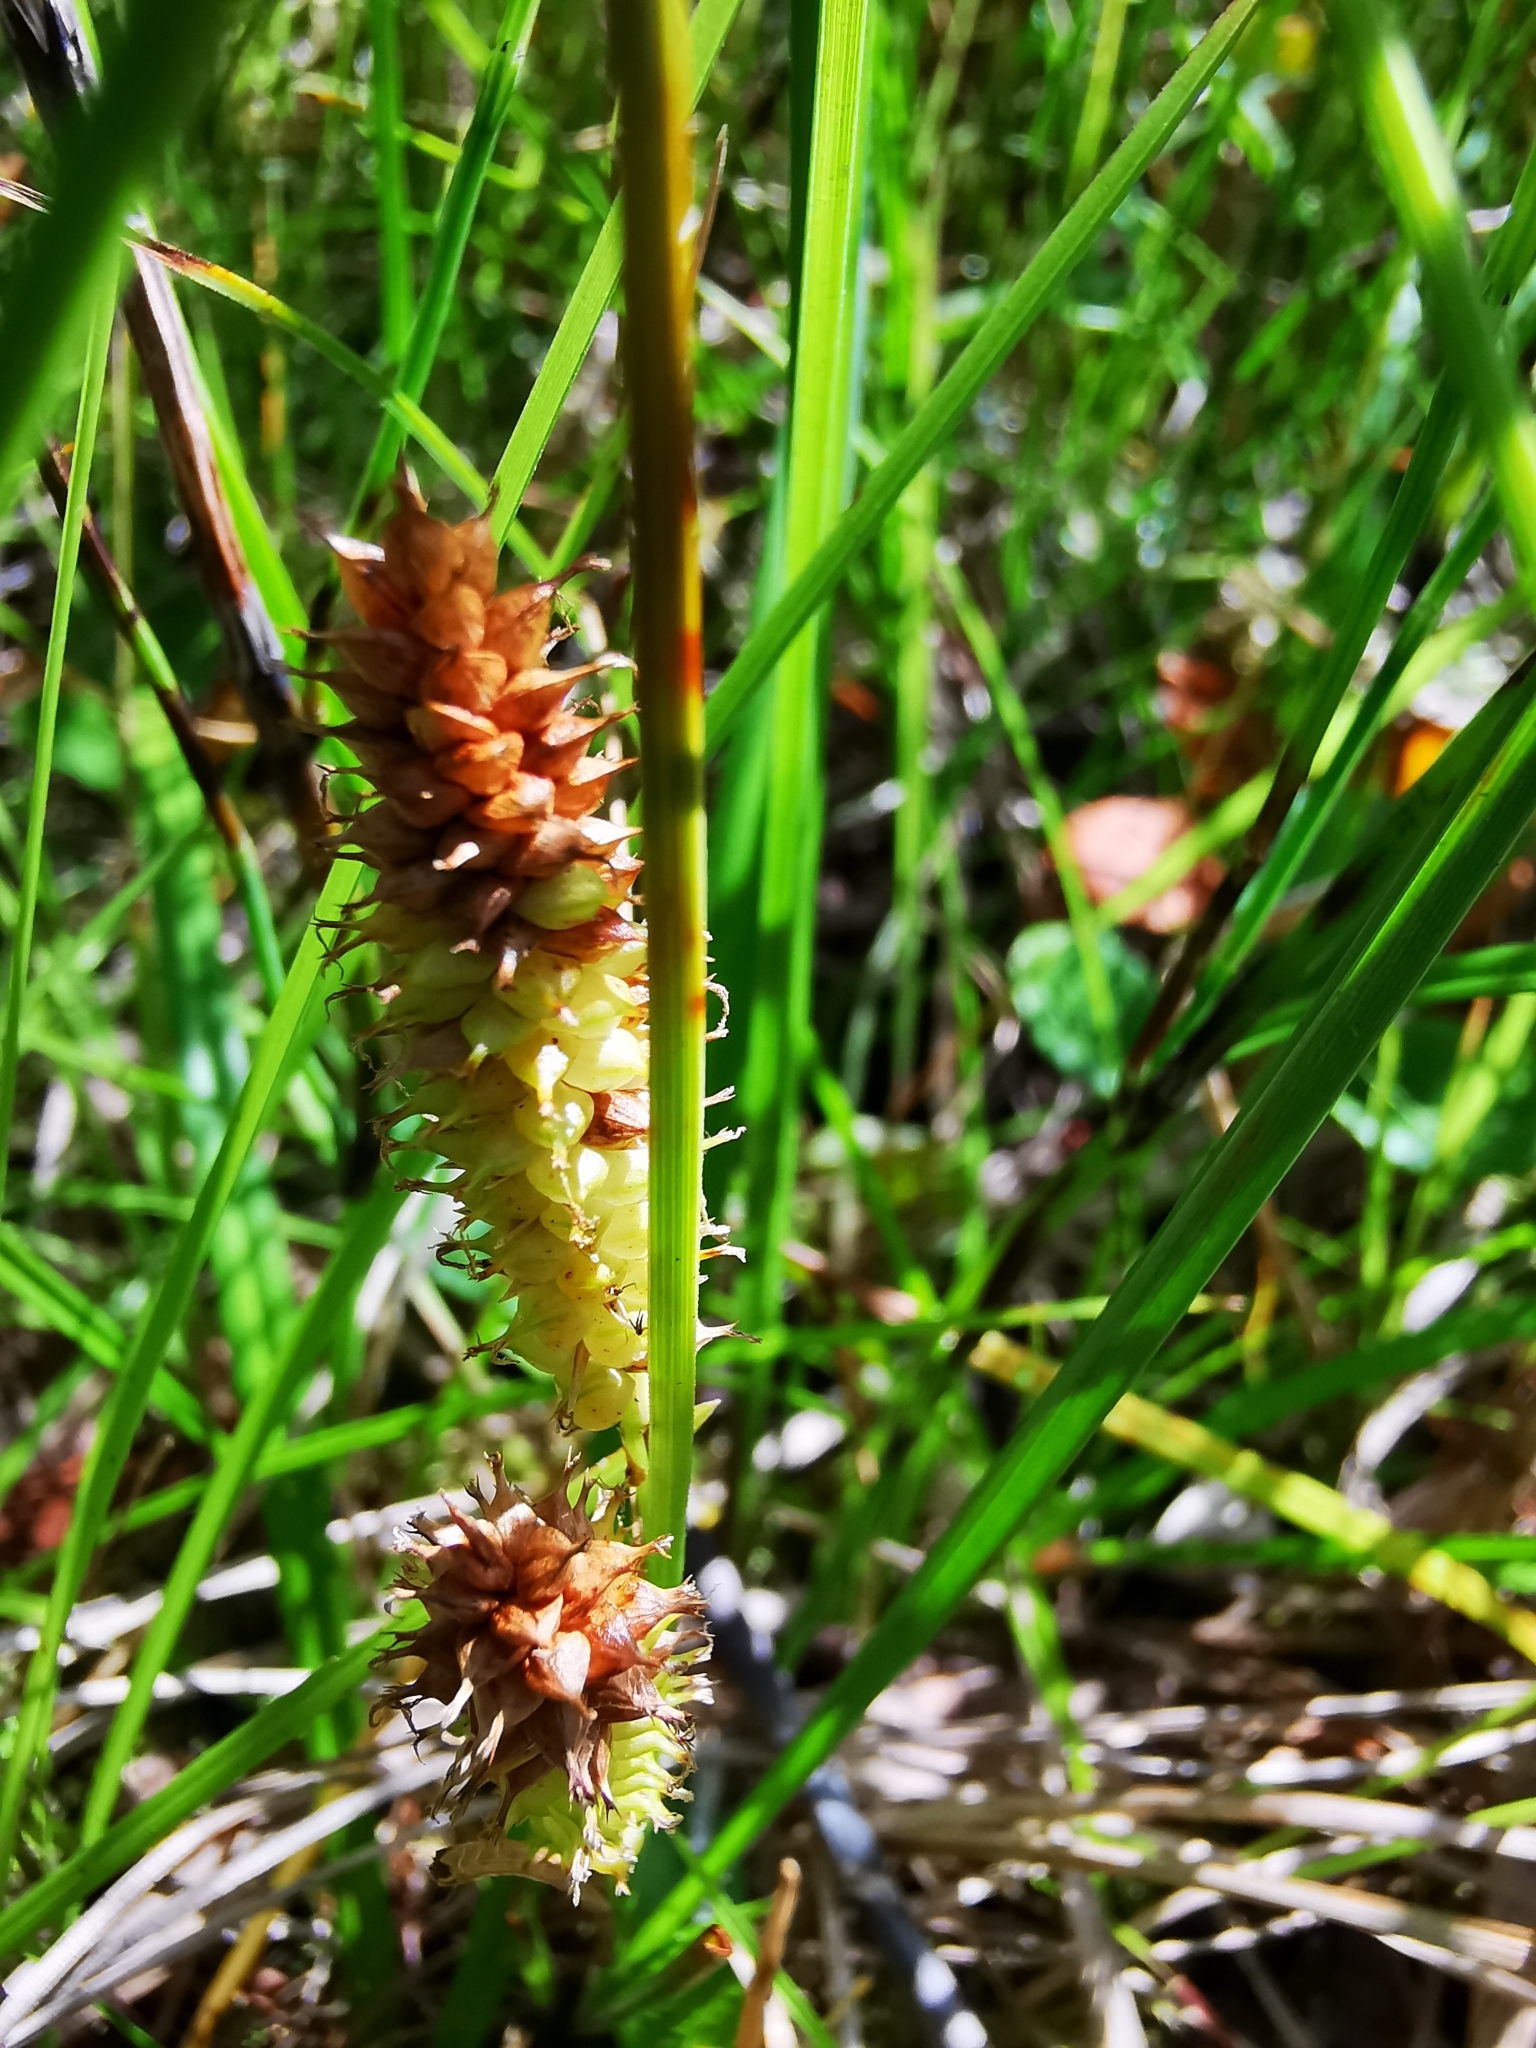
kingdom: Plantae
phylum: Tracheophyta
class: Liliopsida
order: Poales
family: Cyperaceae
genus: Carex
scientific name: Carex rostrata
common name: Bottle sedge
